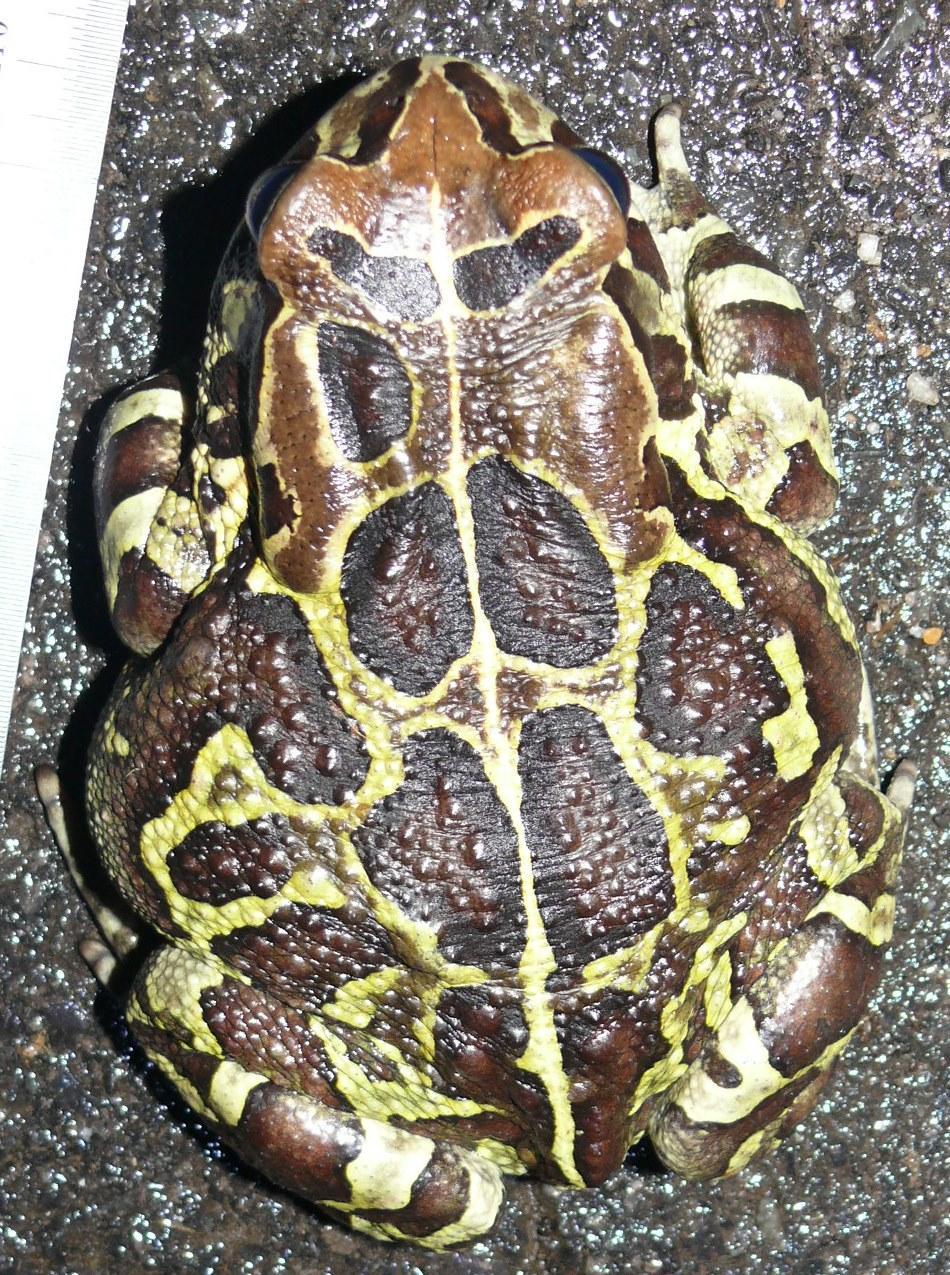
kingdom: Animalia
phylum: Chordata
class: Amphibia
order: Anura
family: Bufonidae
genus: Sclerophrys
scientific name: Sclerophrys pantherina
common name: Panther toad
